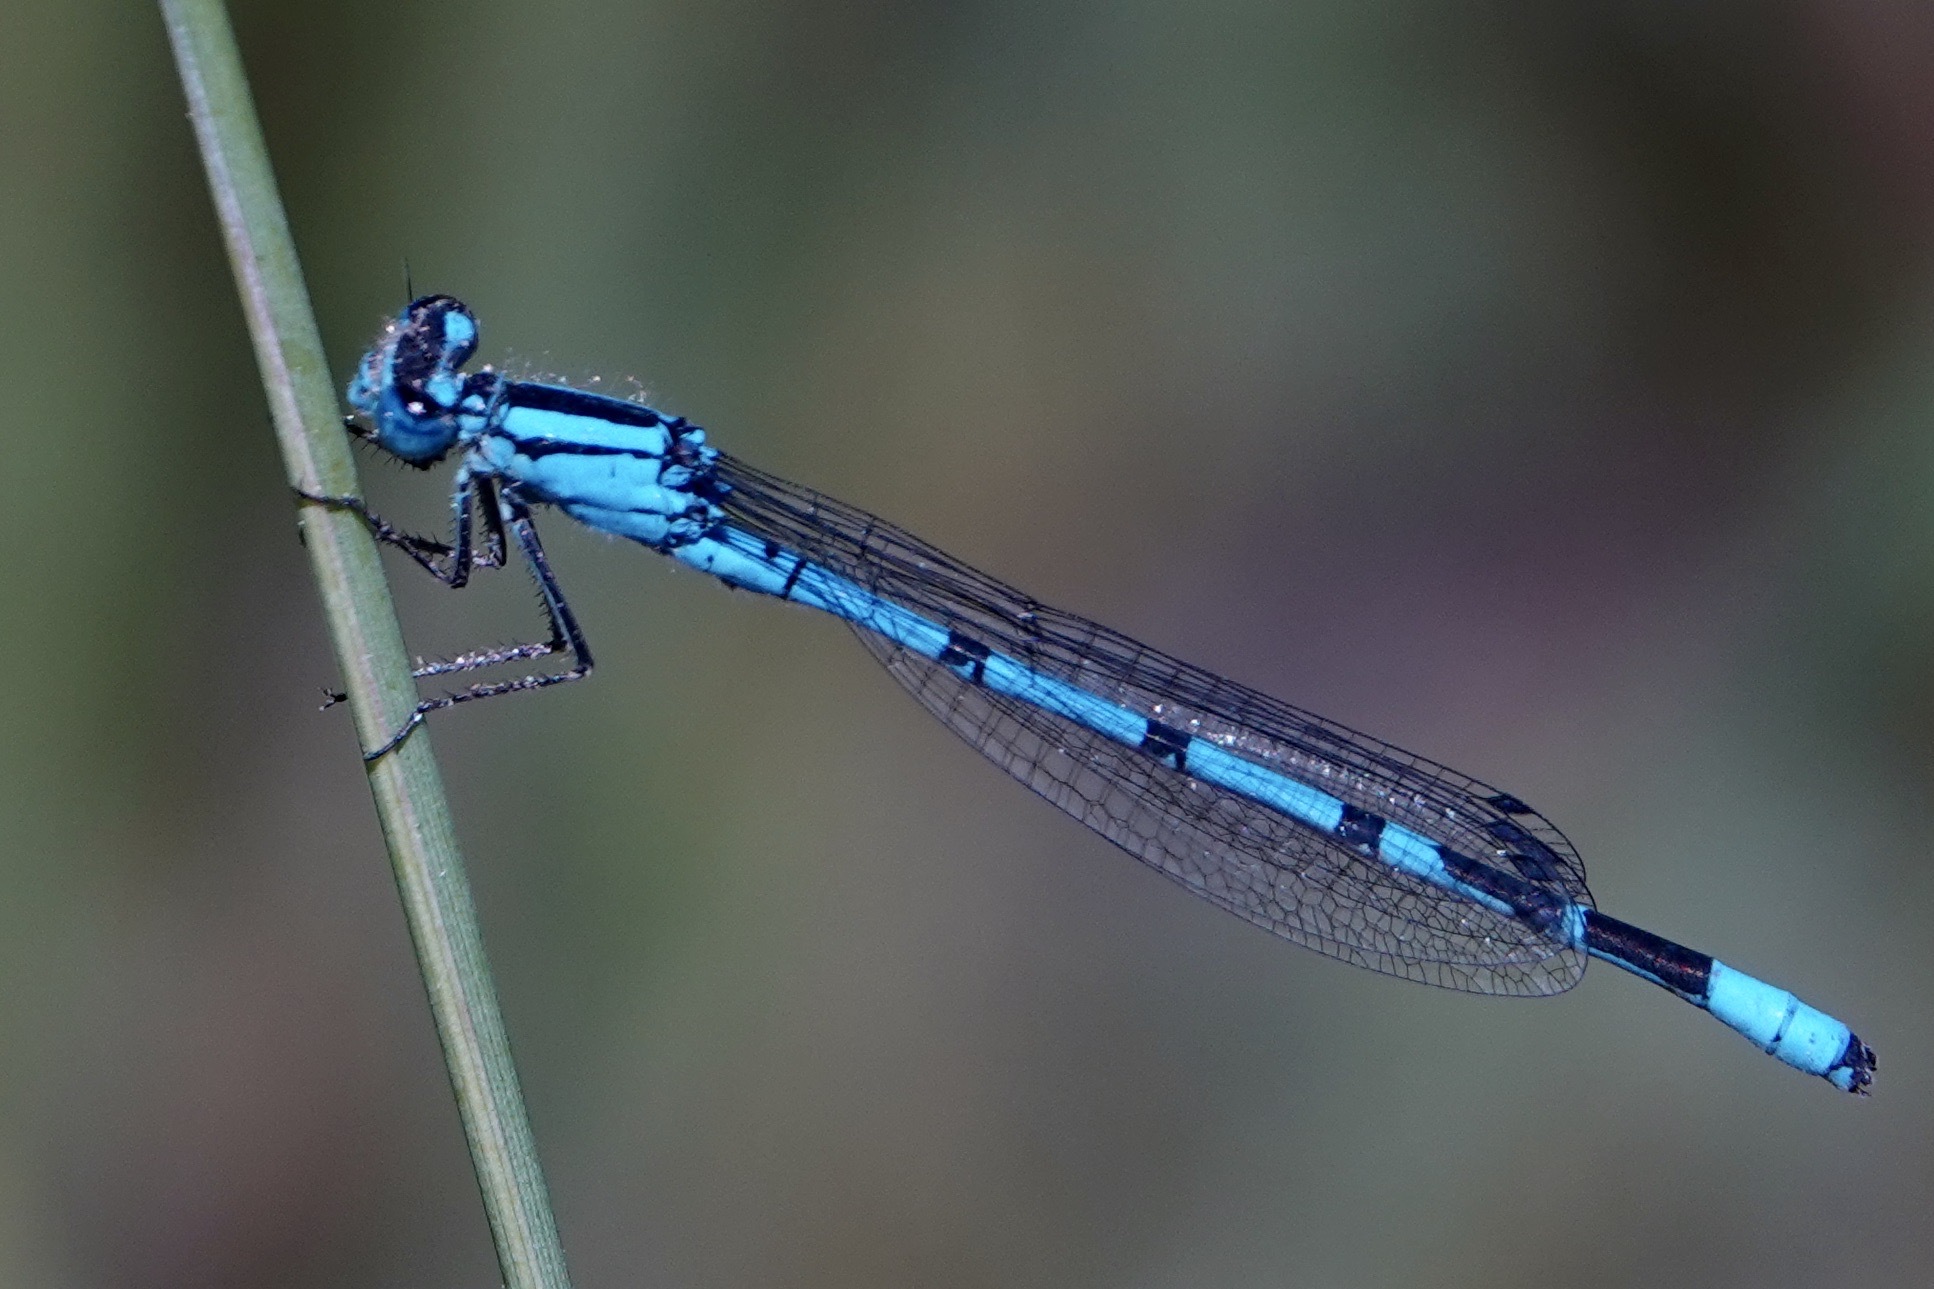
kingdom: Animalia
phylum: Arthropoda
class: Insecta
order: Odonata
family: Coenagrionidae
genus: Enallagma
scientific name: Enallagma annexum
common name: Northern bluet
